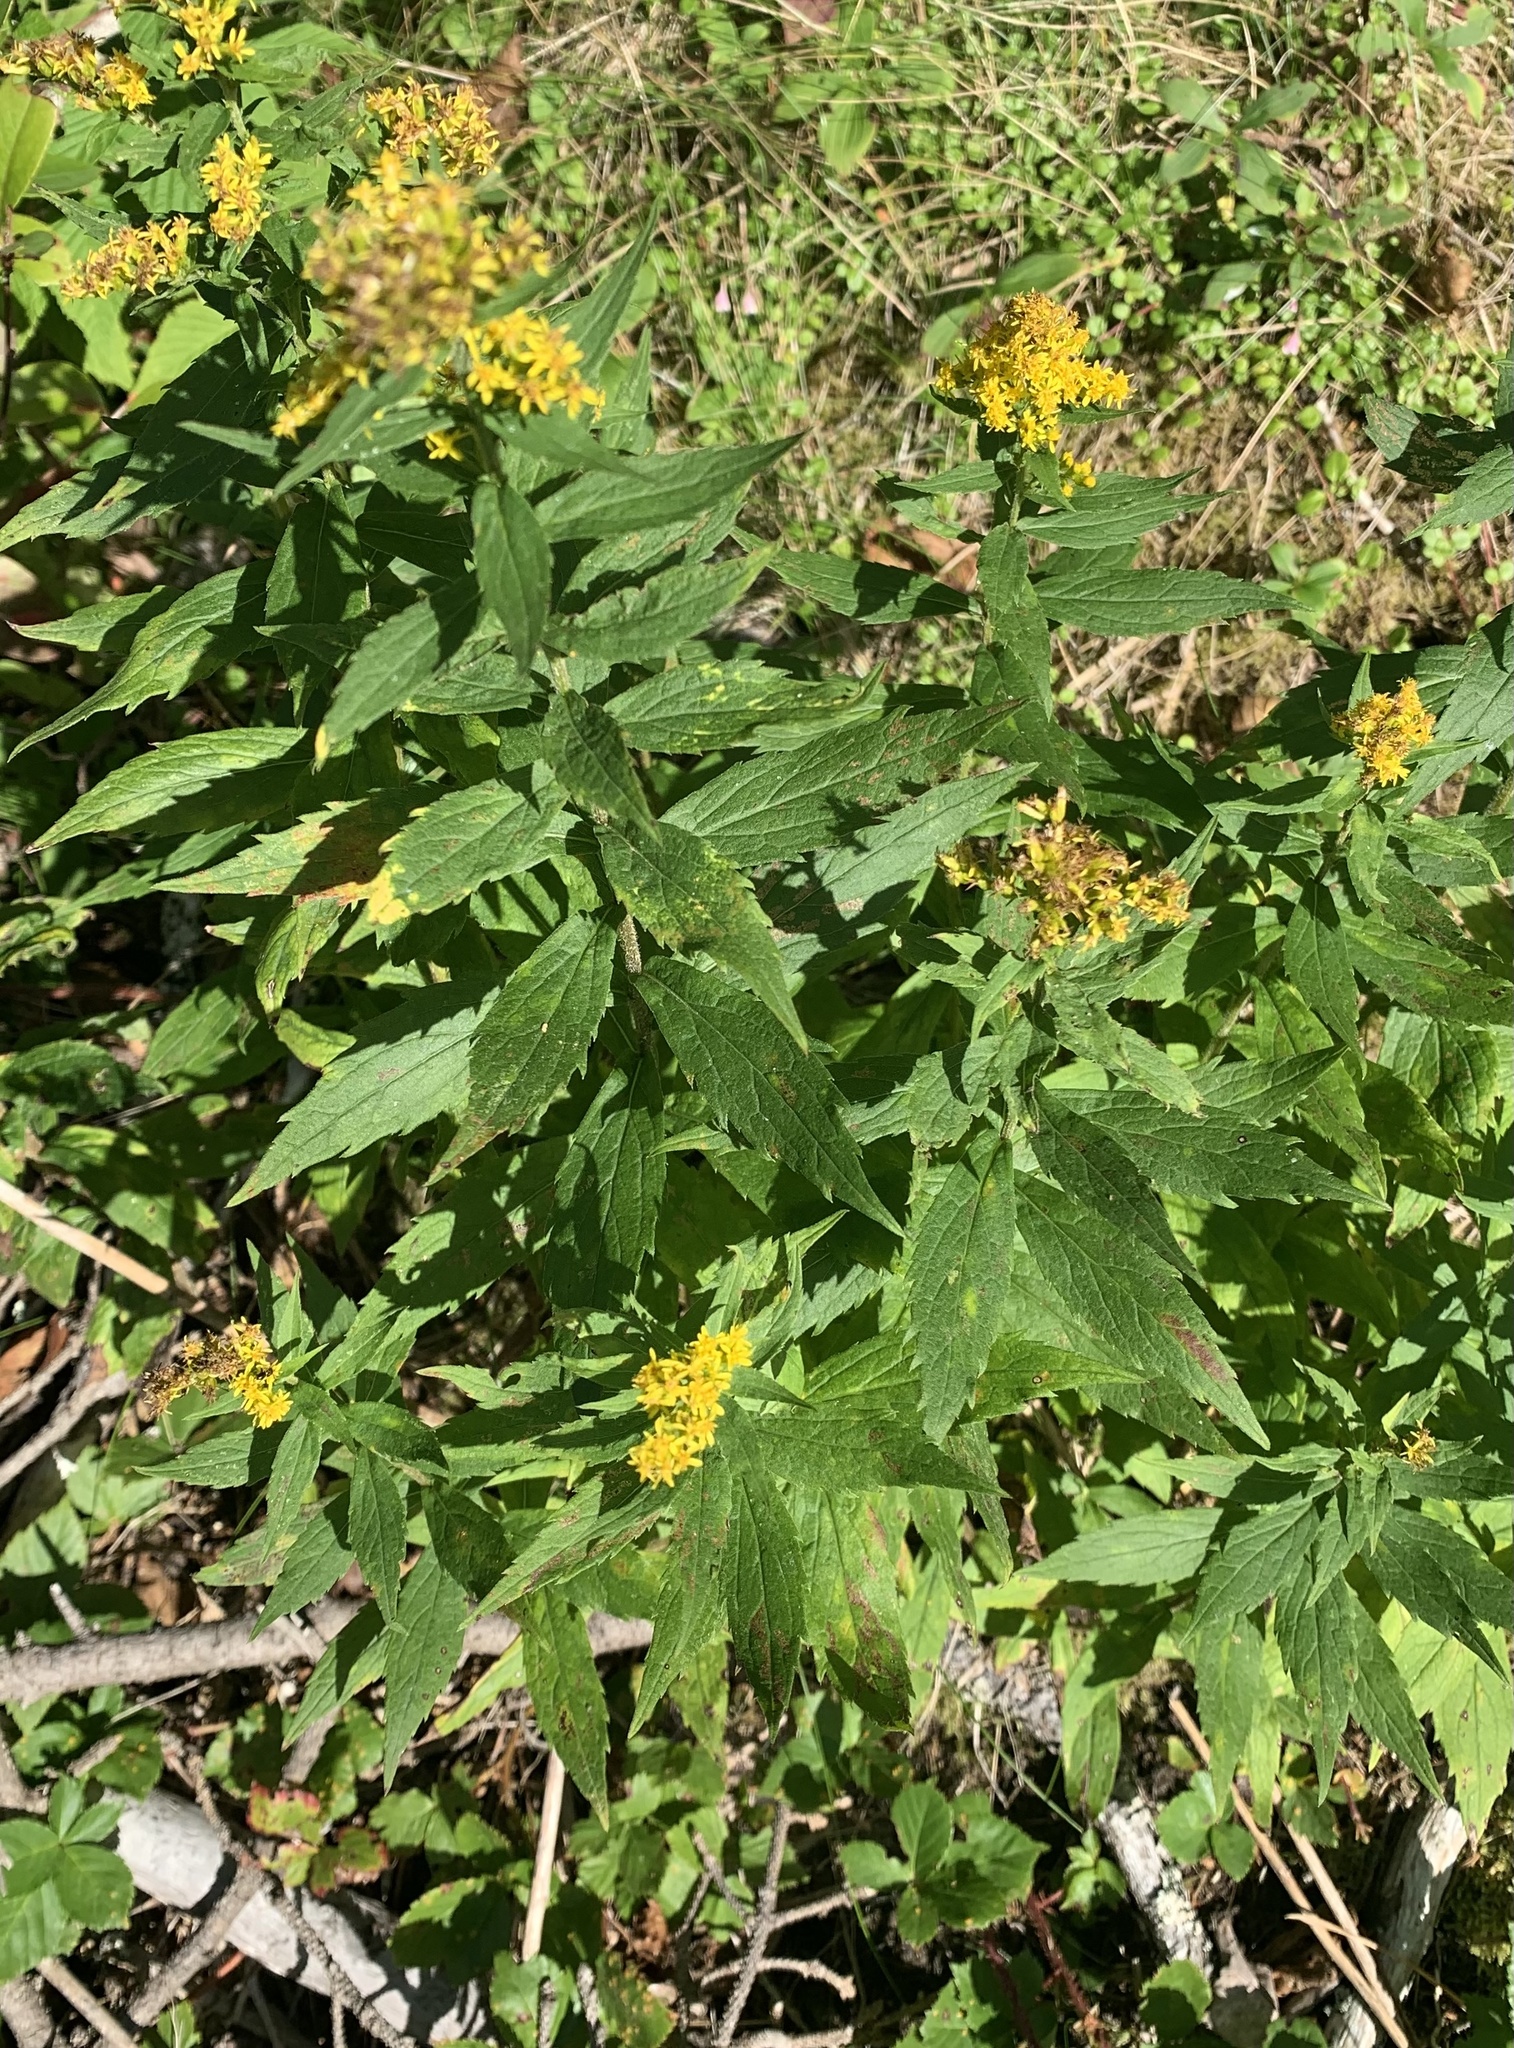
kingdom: Plantae
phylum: Tracheophyta
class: Magnoliopsida
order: Asterales
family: Asteraceae
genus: Solidago
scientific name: Solidago rugosa
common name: Rough-stemmed goldenrod
